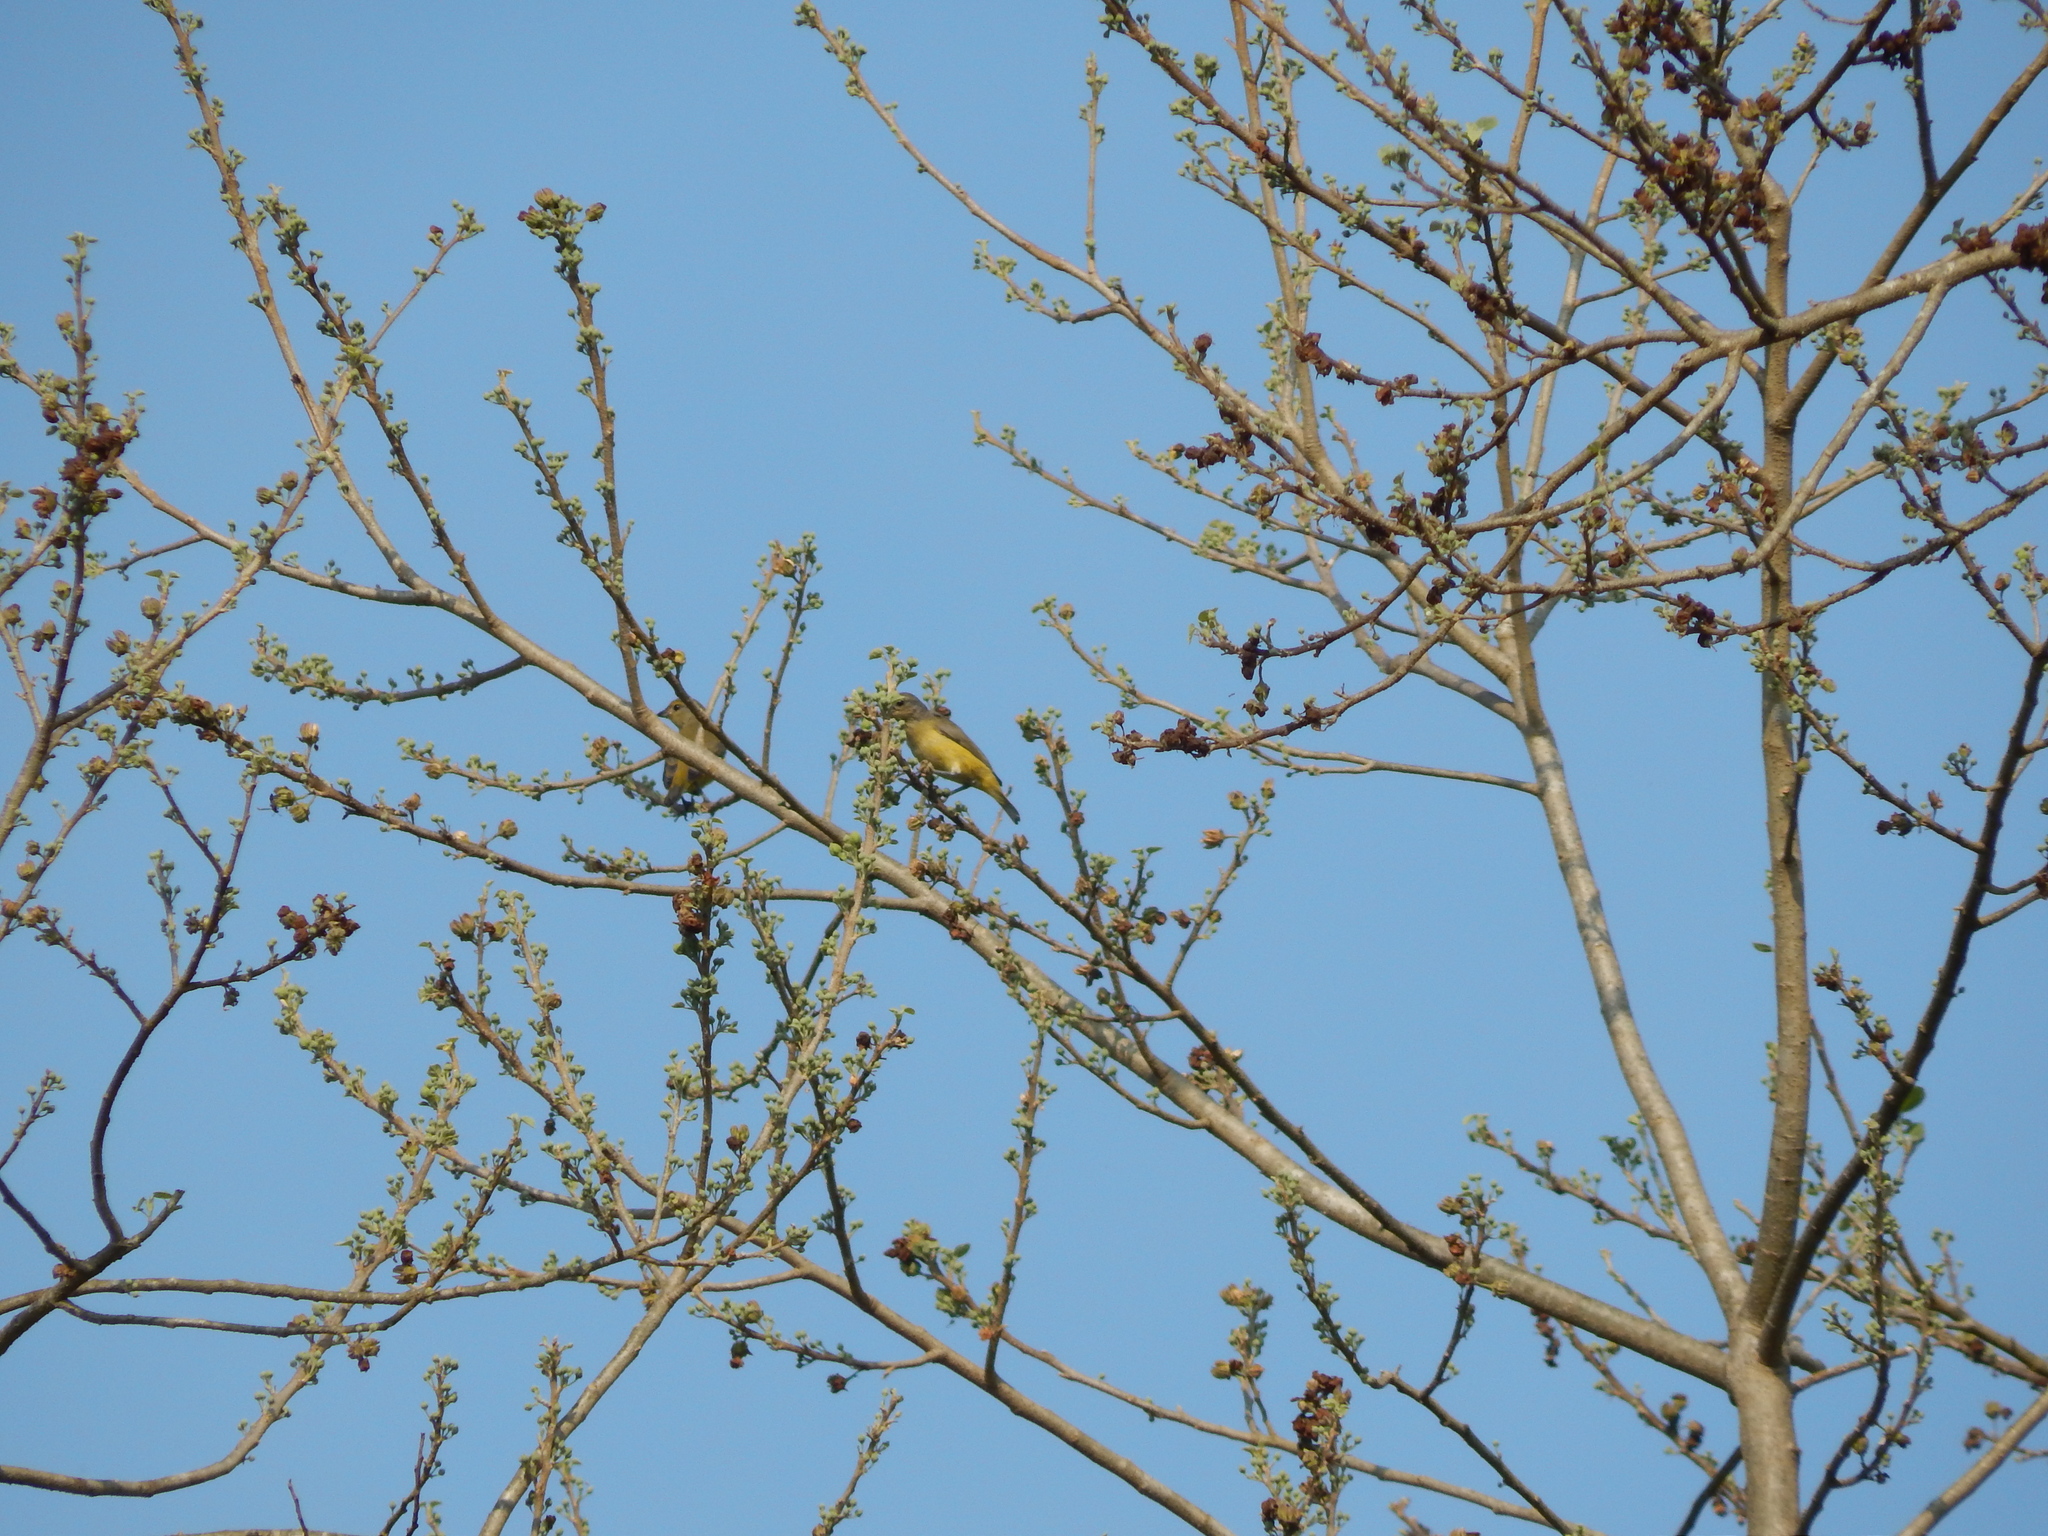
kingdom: Animalia
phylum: Chordata
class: Aves
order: Passeriformes
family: Fringillidae
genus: Euphonia
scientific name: Euphonia affinis
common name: Scrub euphonia
